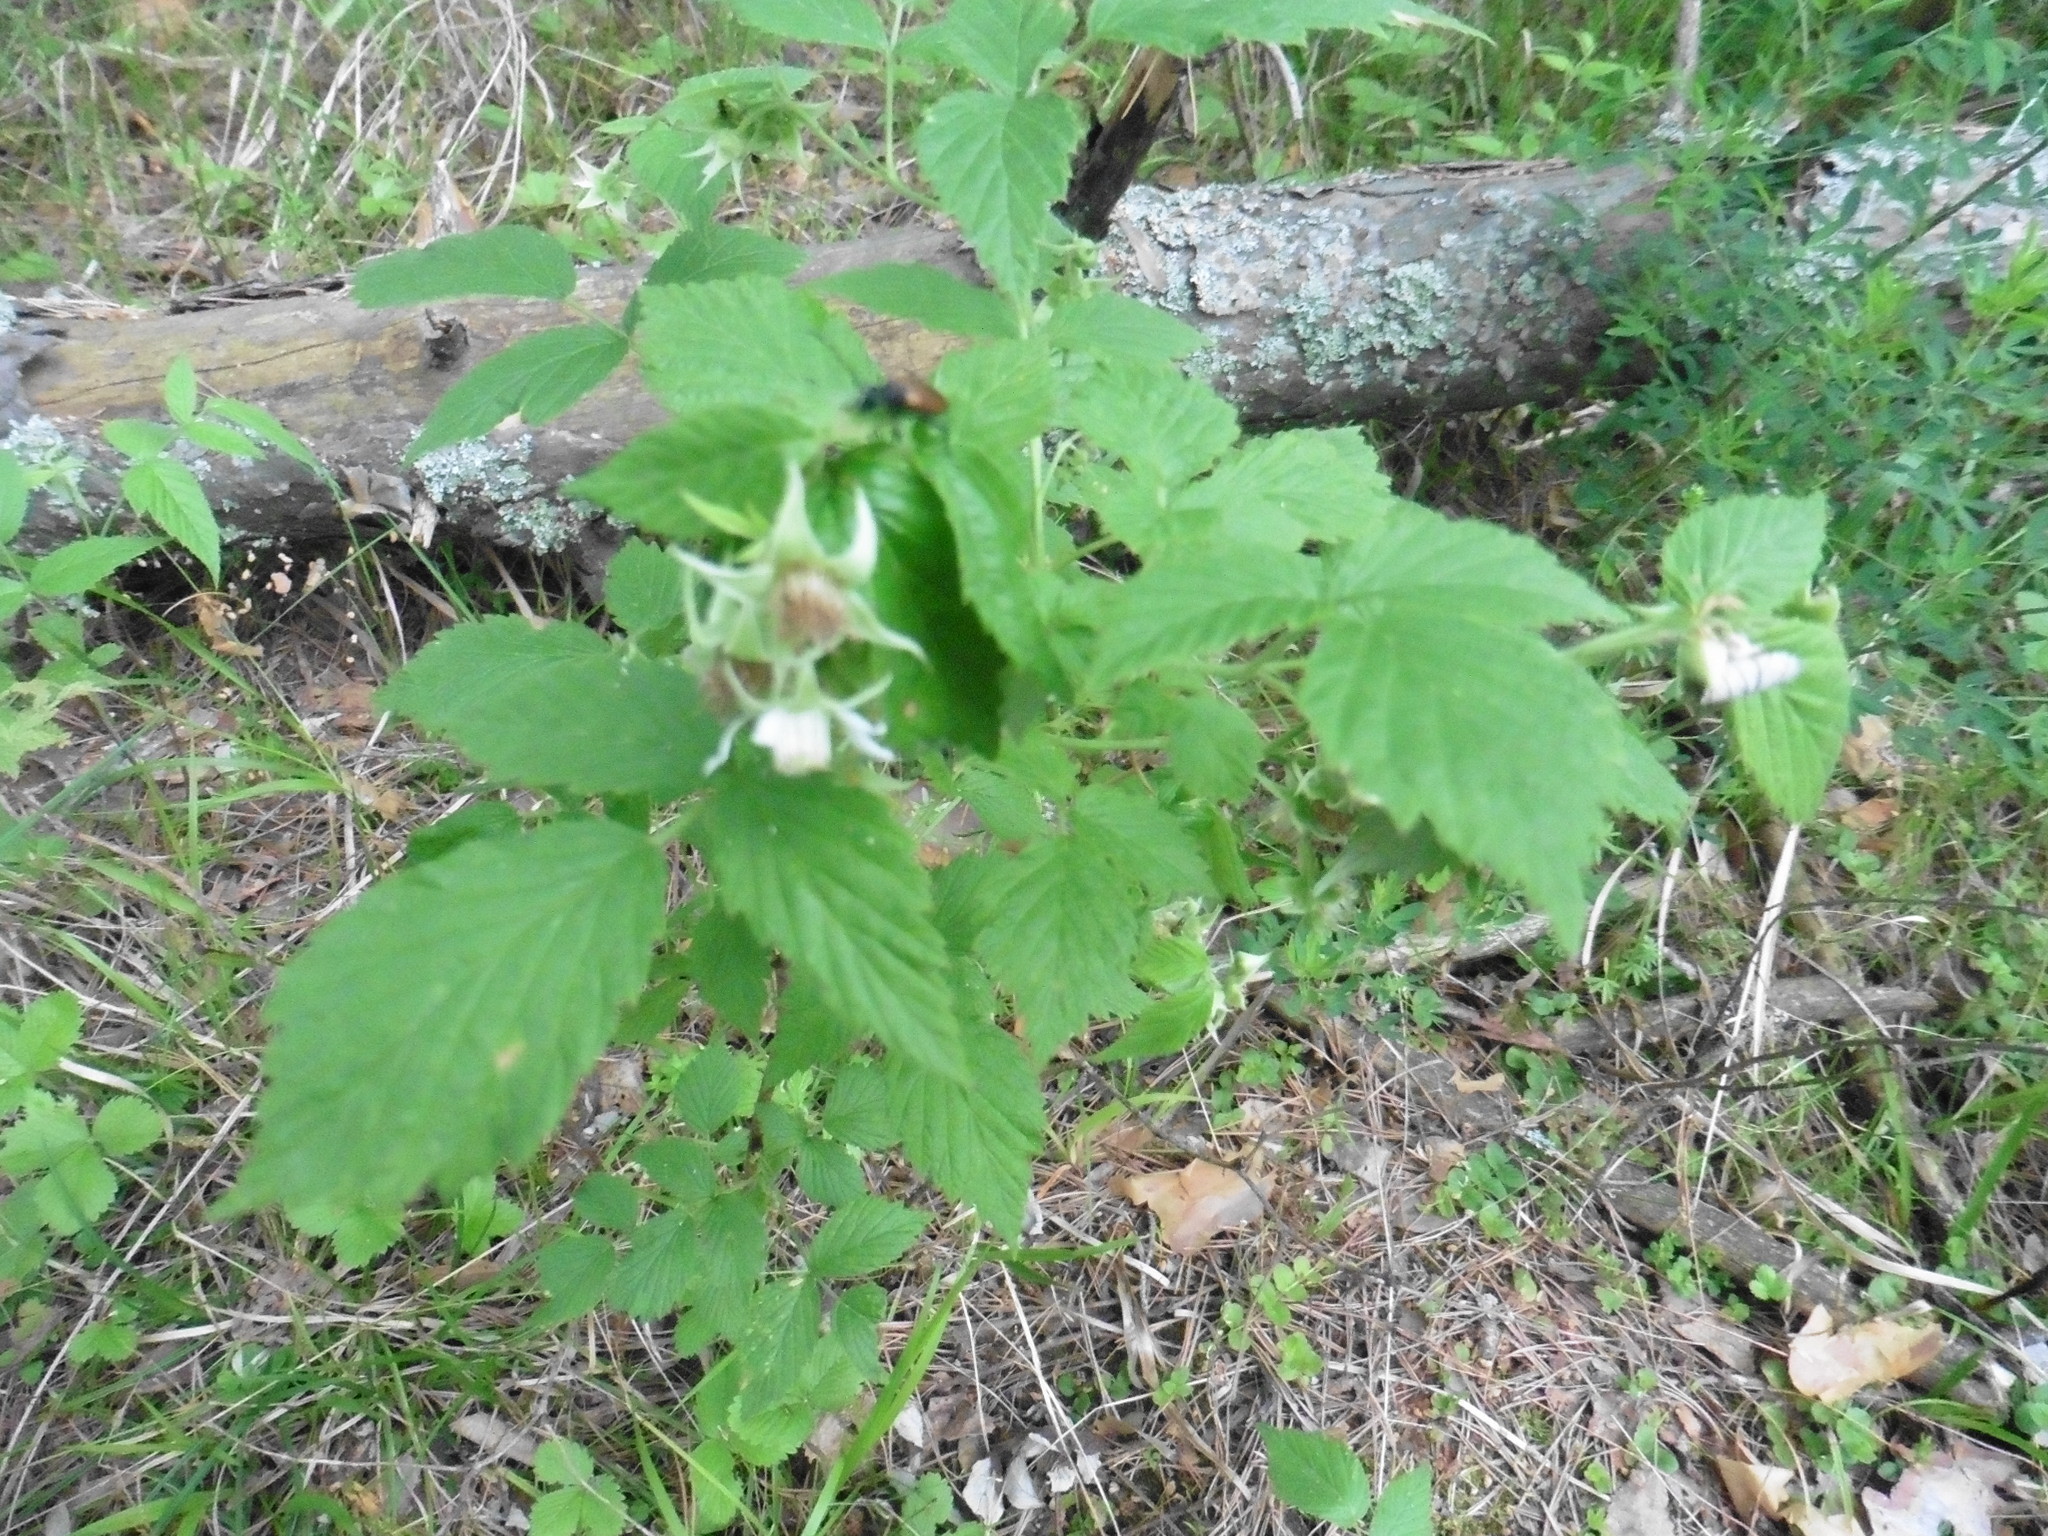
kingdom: Plantae
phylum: Tracheophyta
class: Magnoliopsida
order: Rosales
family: Rosaceae
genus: Rubus
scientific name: Rubus idaeus
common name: Raspberry
